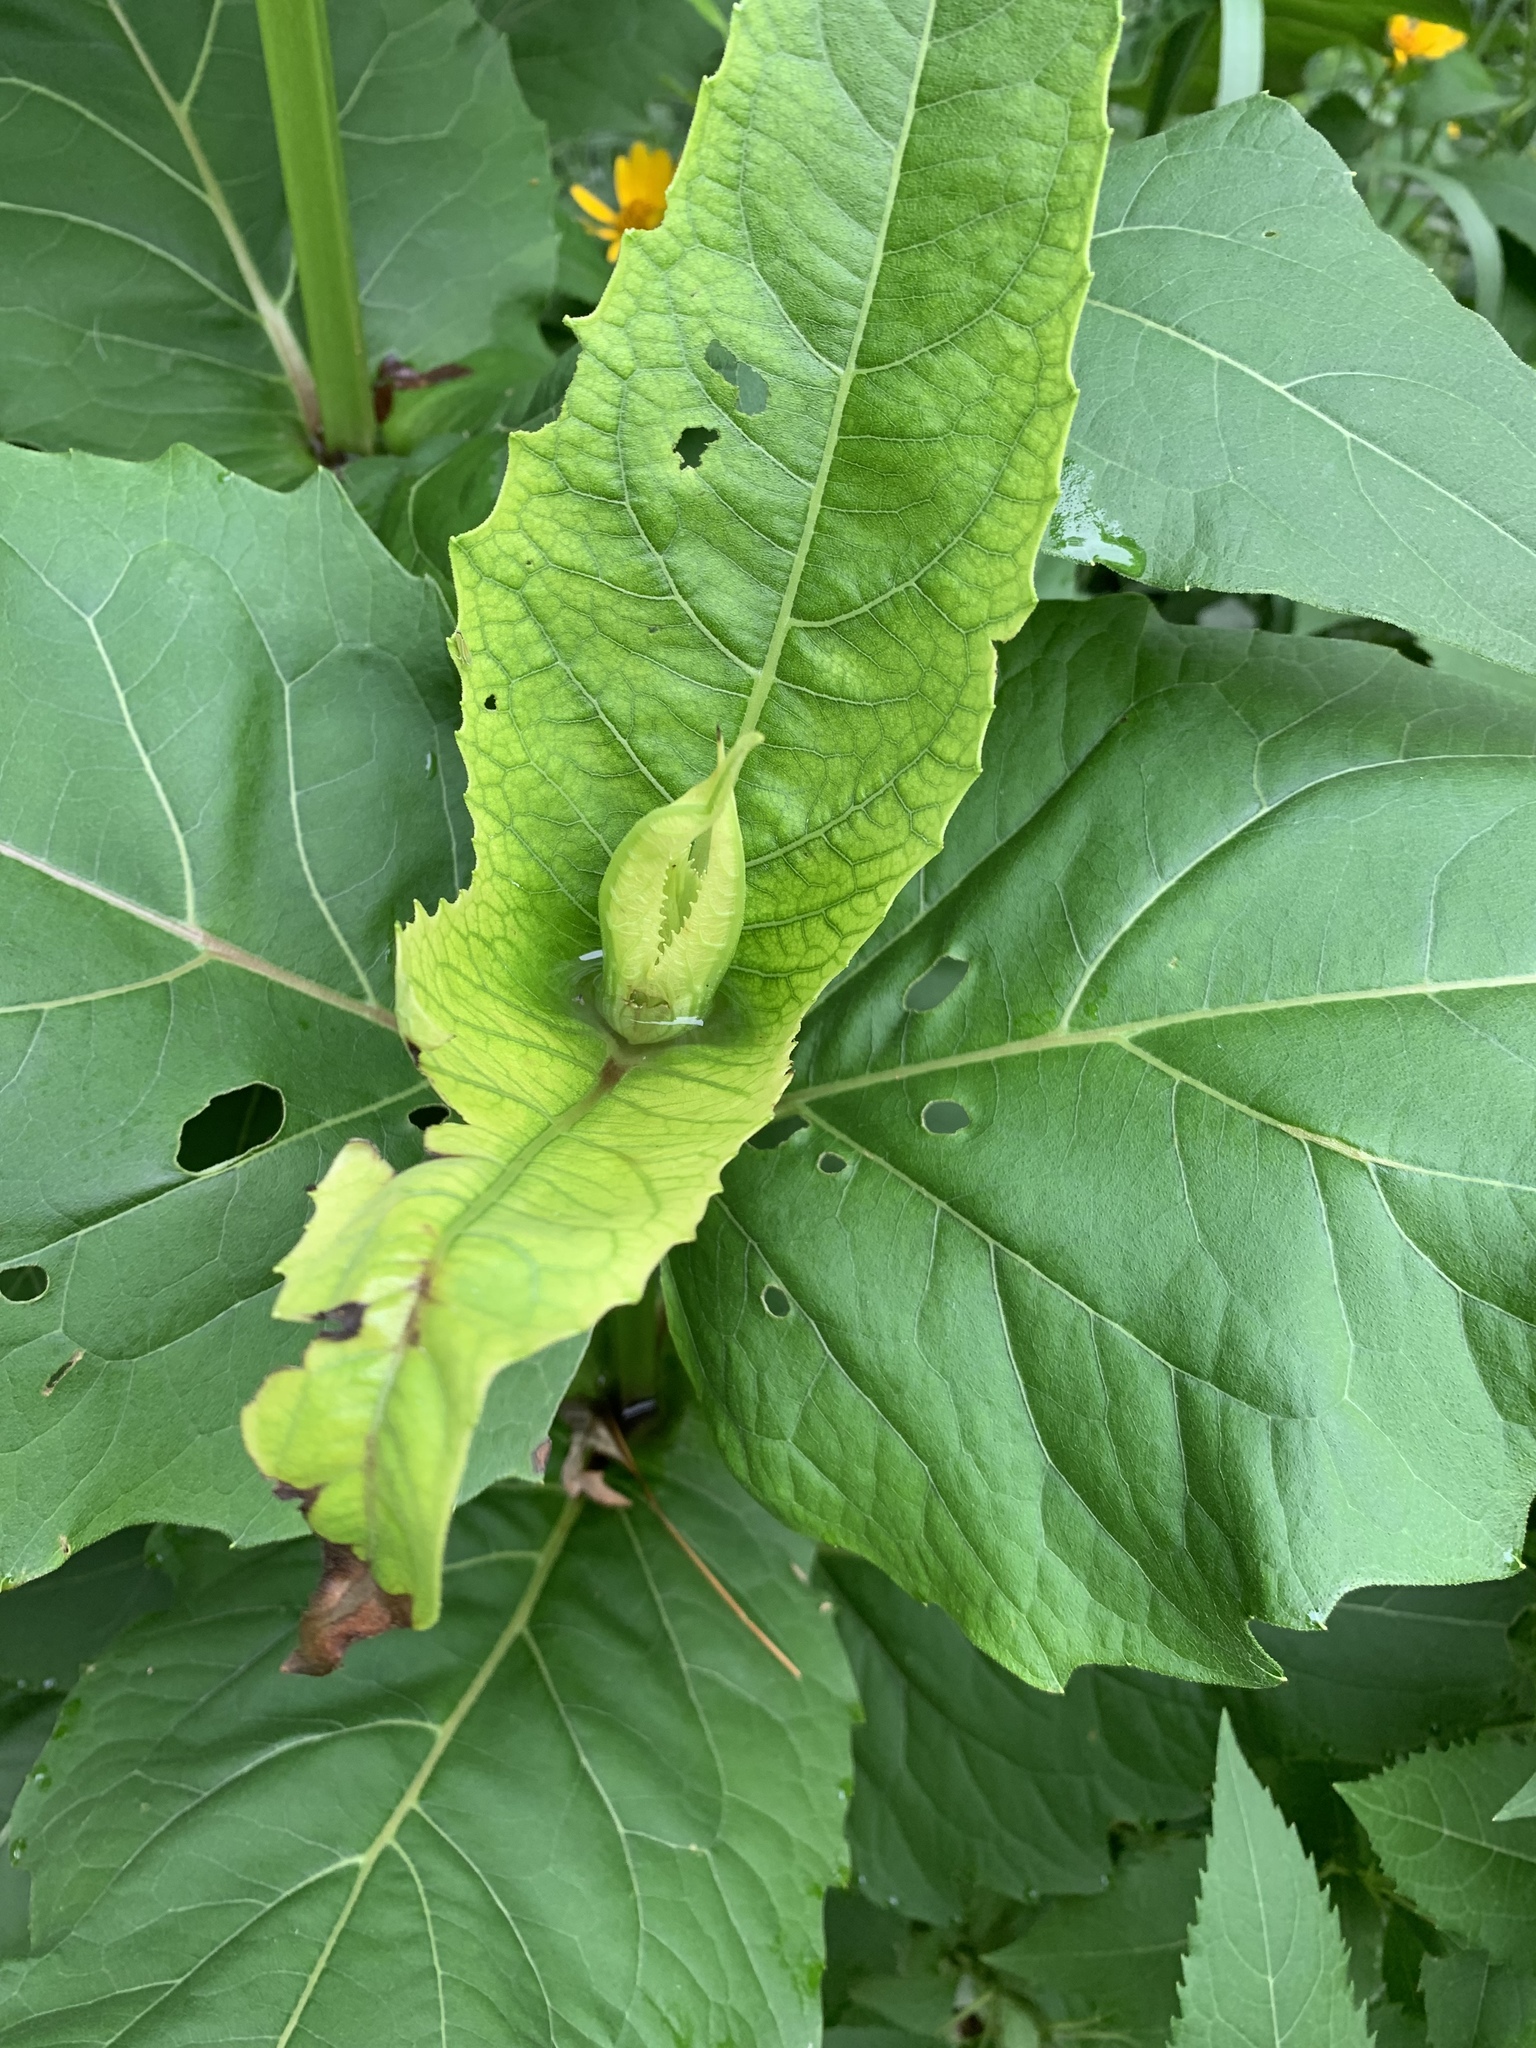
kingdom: Plantae
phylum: Tracheophyta
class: Magnoliopsida
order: Asterales
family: Asteraceae
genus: Silphium
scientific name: Silphium perfoliatum
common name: Cup-plant
